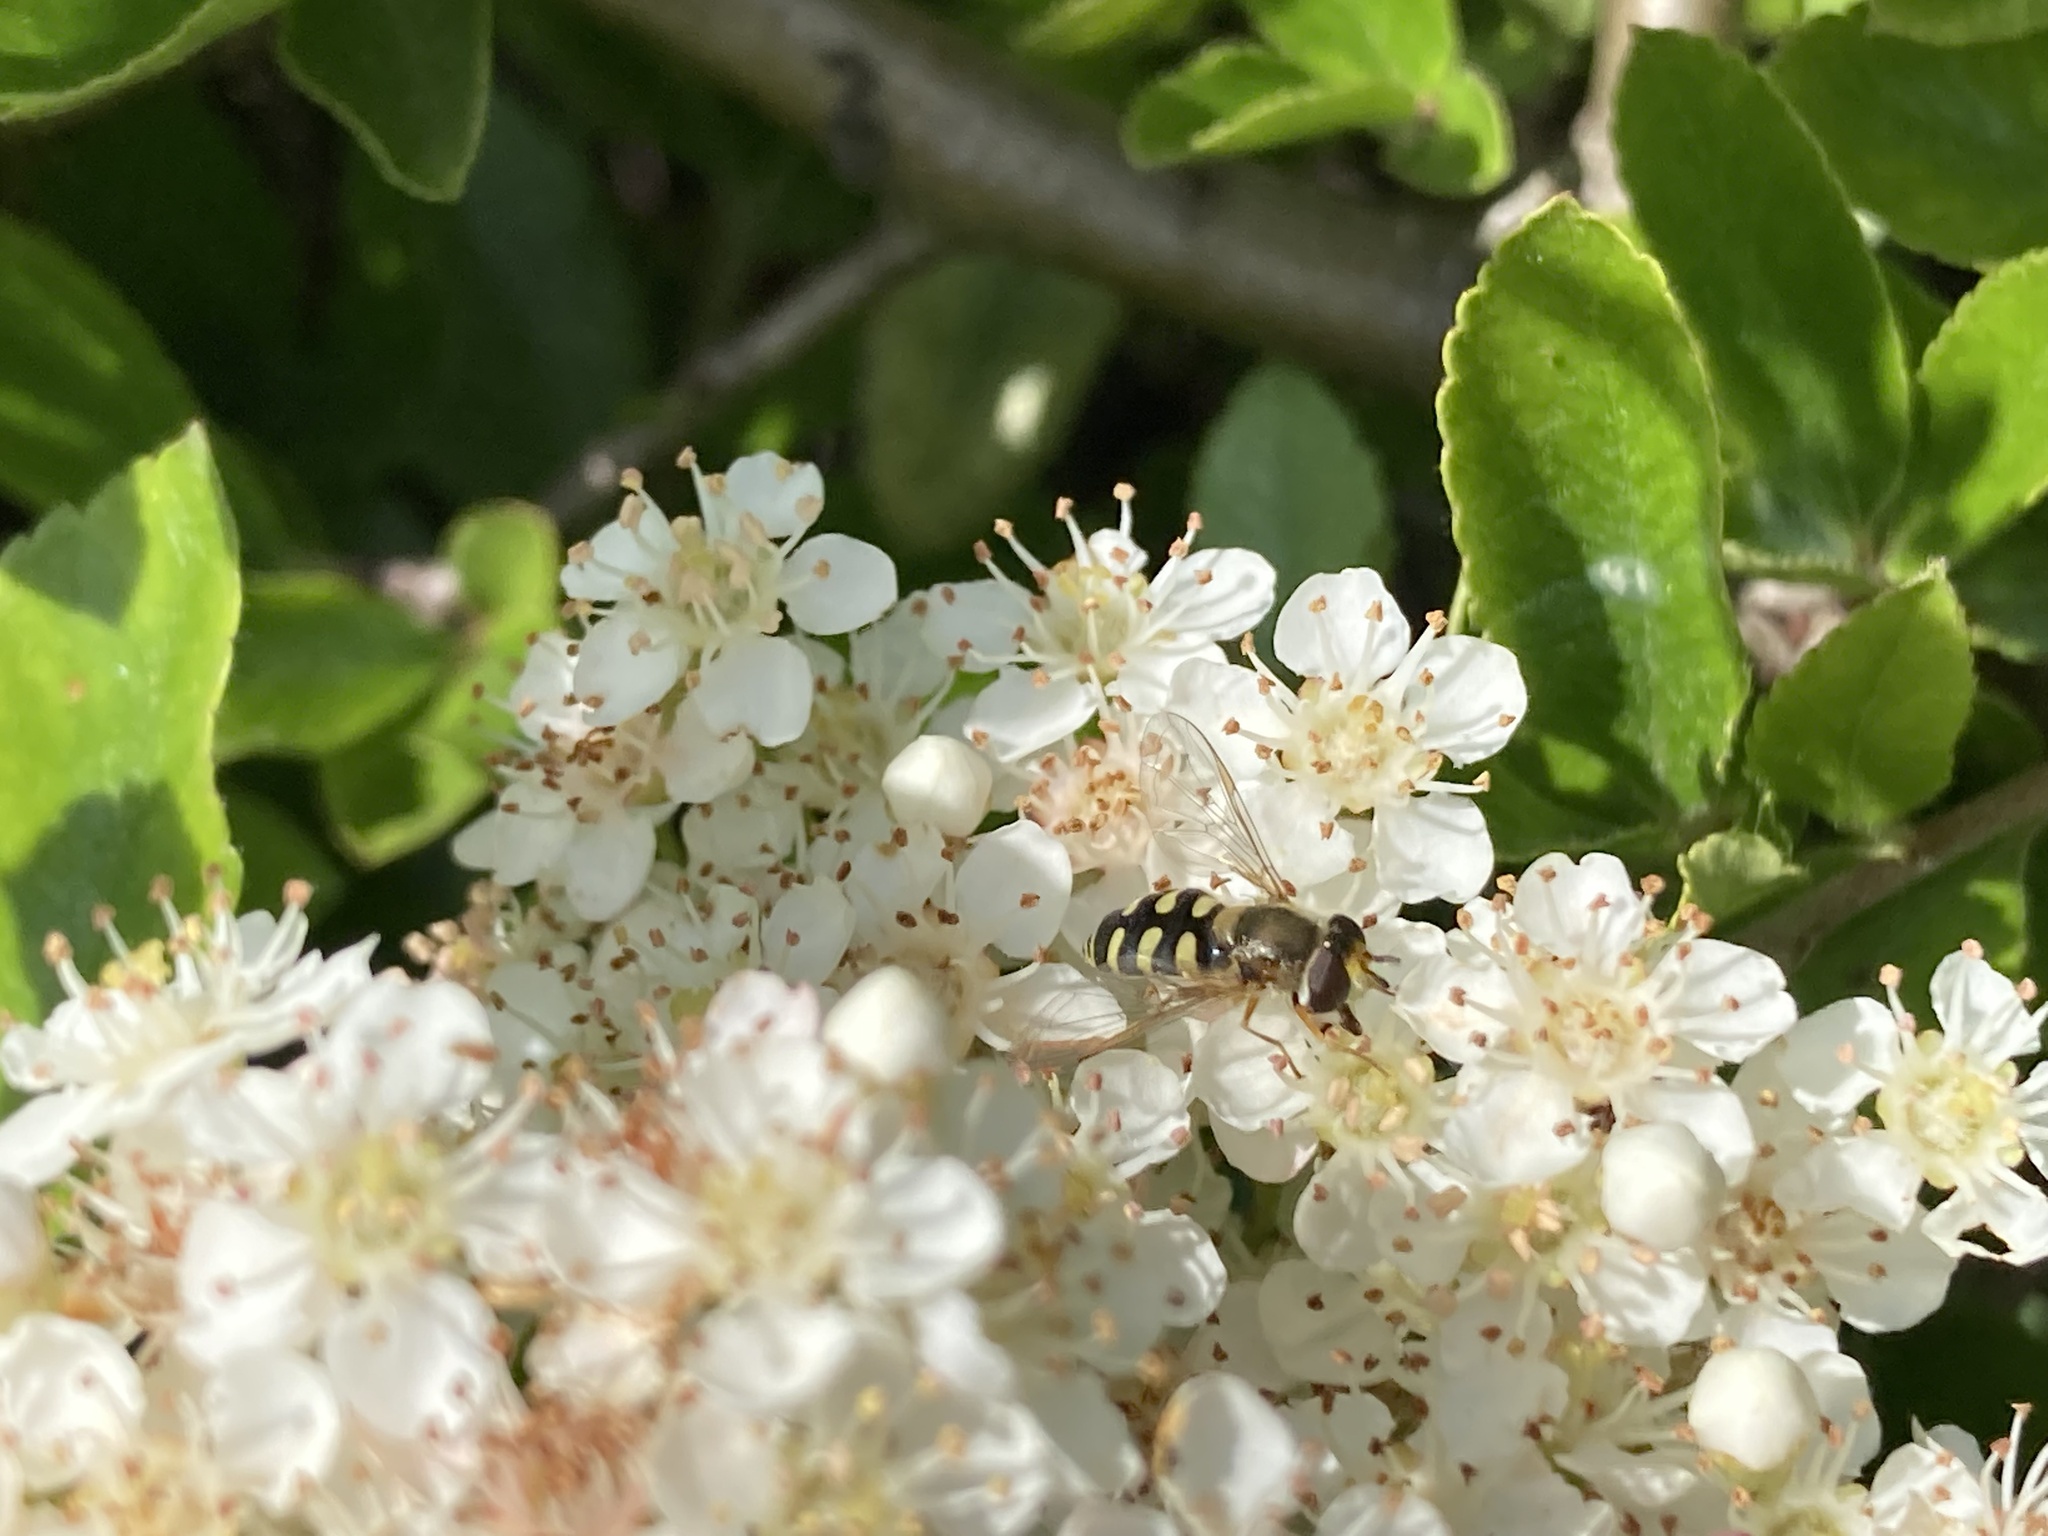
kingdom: Animalia
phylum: Arthropoda
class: Insecta
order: Diptera
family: Syrphidae
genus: Eupeodes
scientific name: Eupeodes corollae
